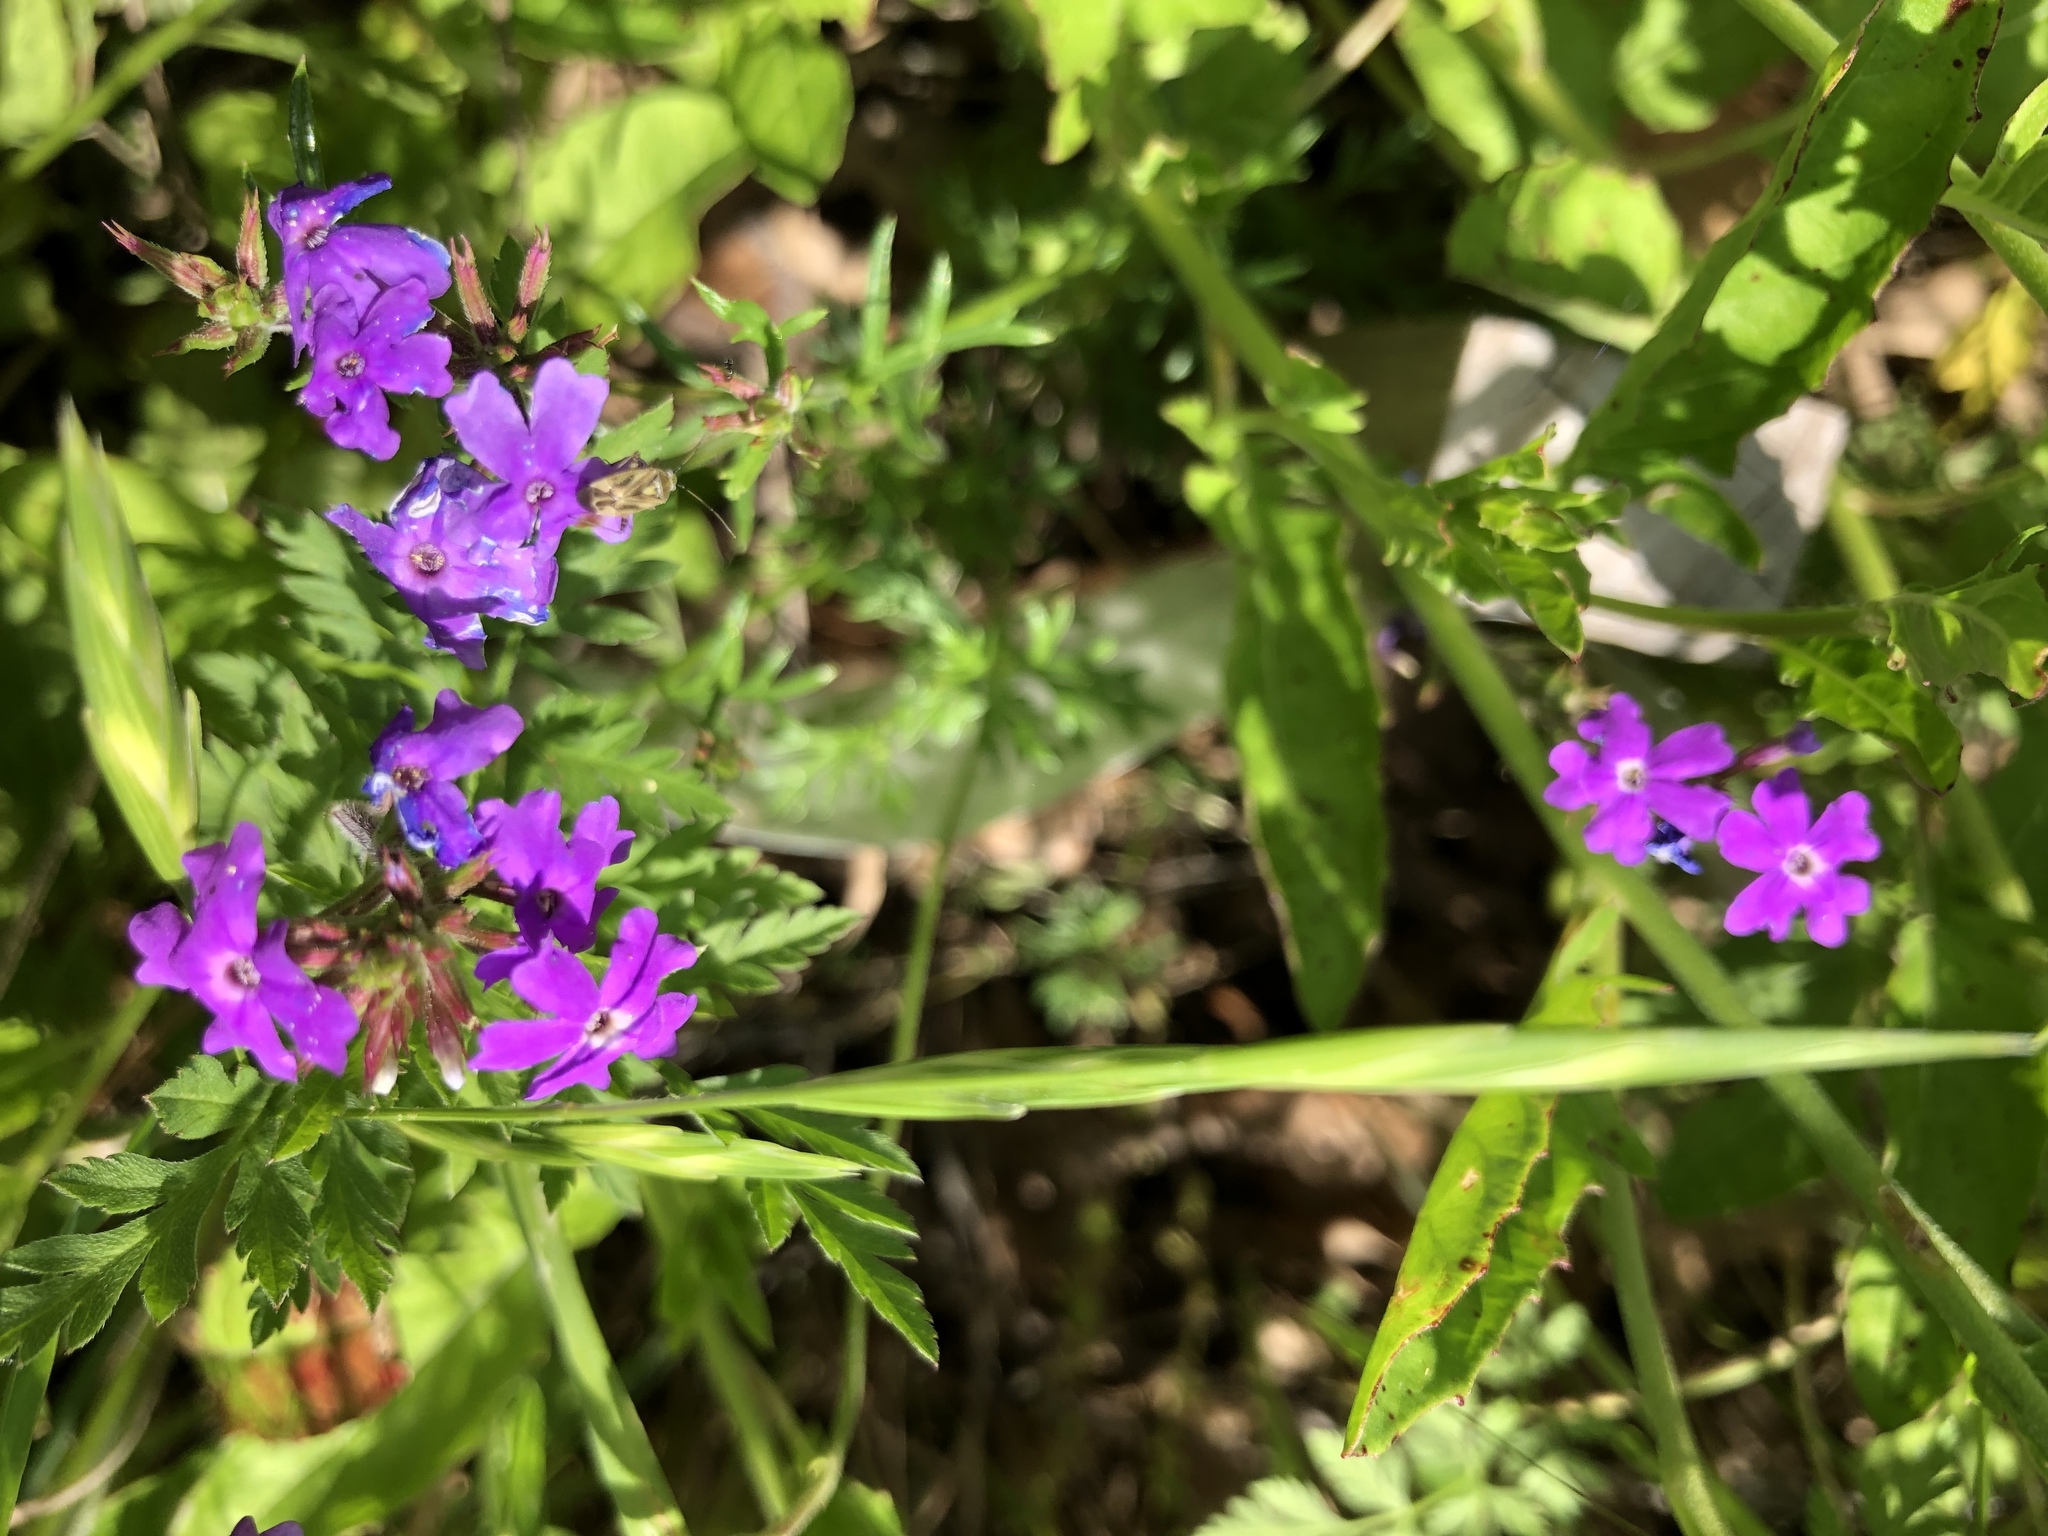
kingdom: Plantae
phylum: Tracheophyta
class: Magnoliopsida
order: Lamiales
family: Verbenaceae
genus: Verbena
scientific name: Verbena bipinnatifida
